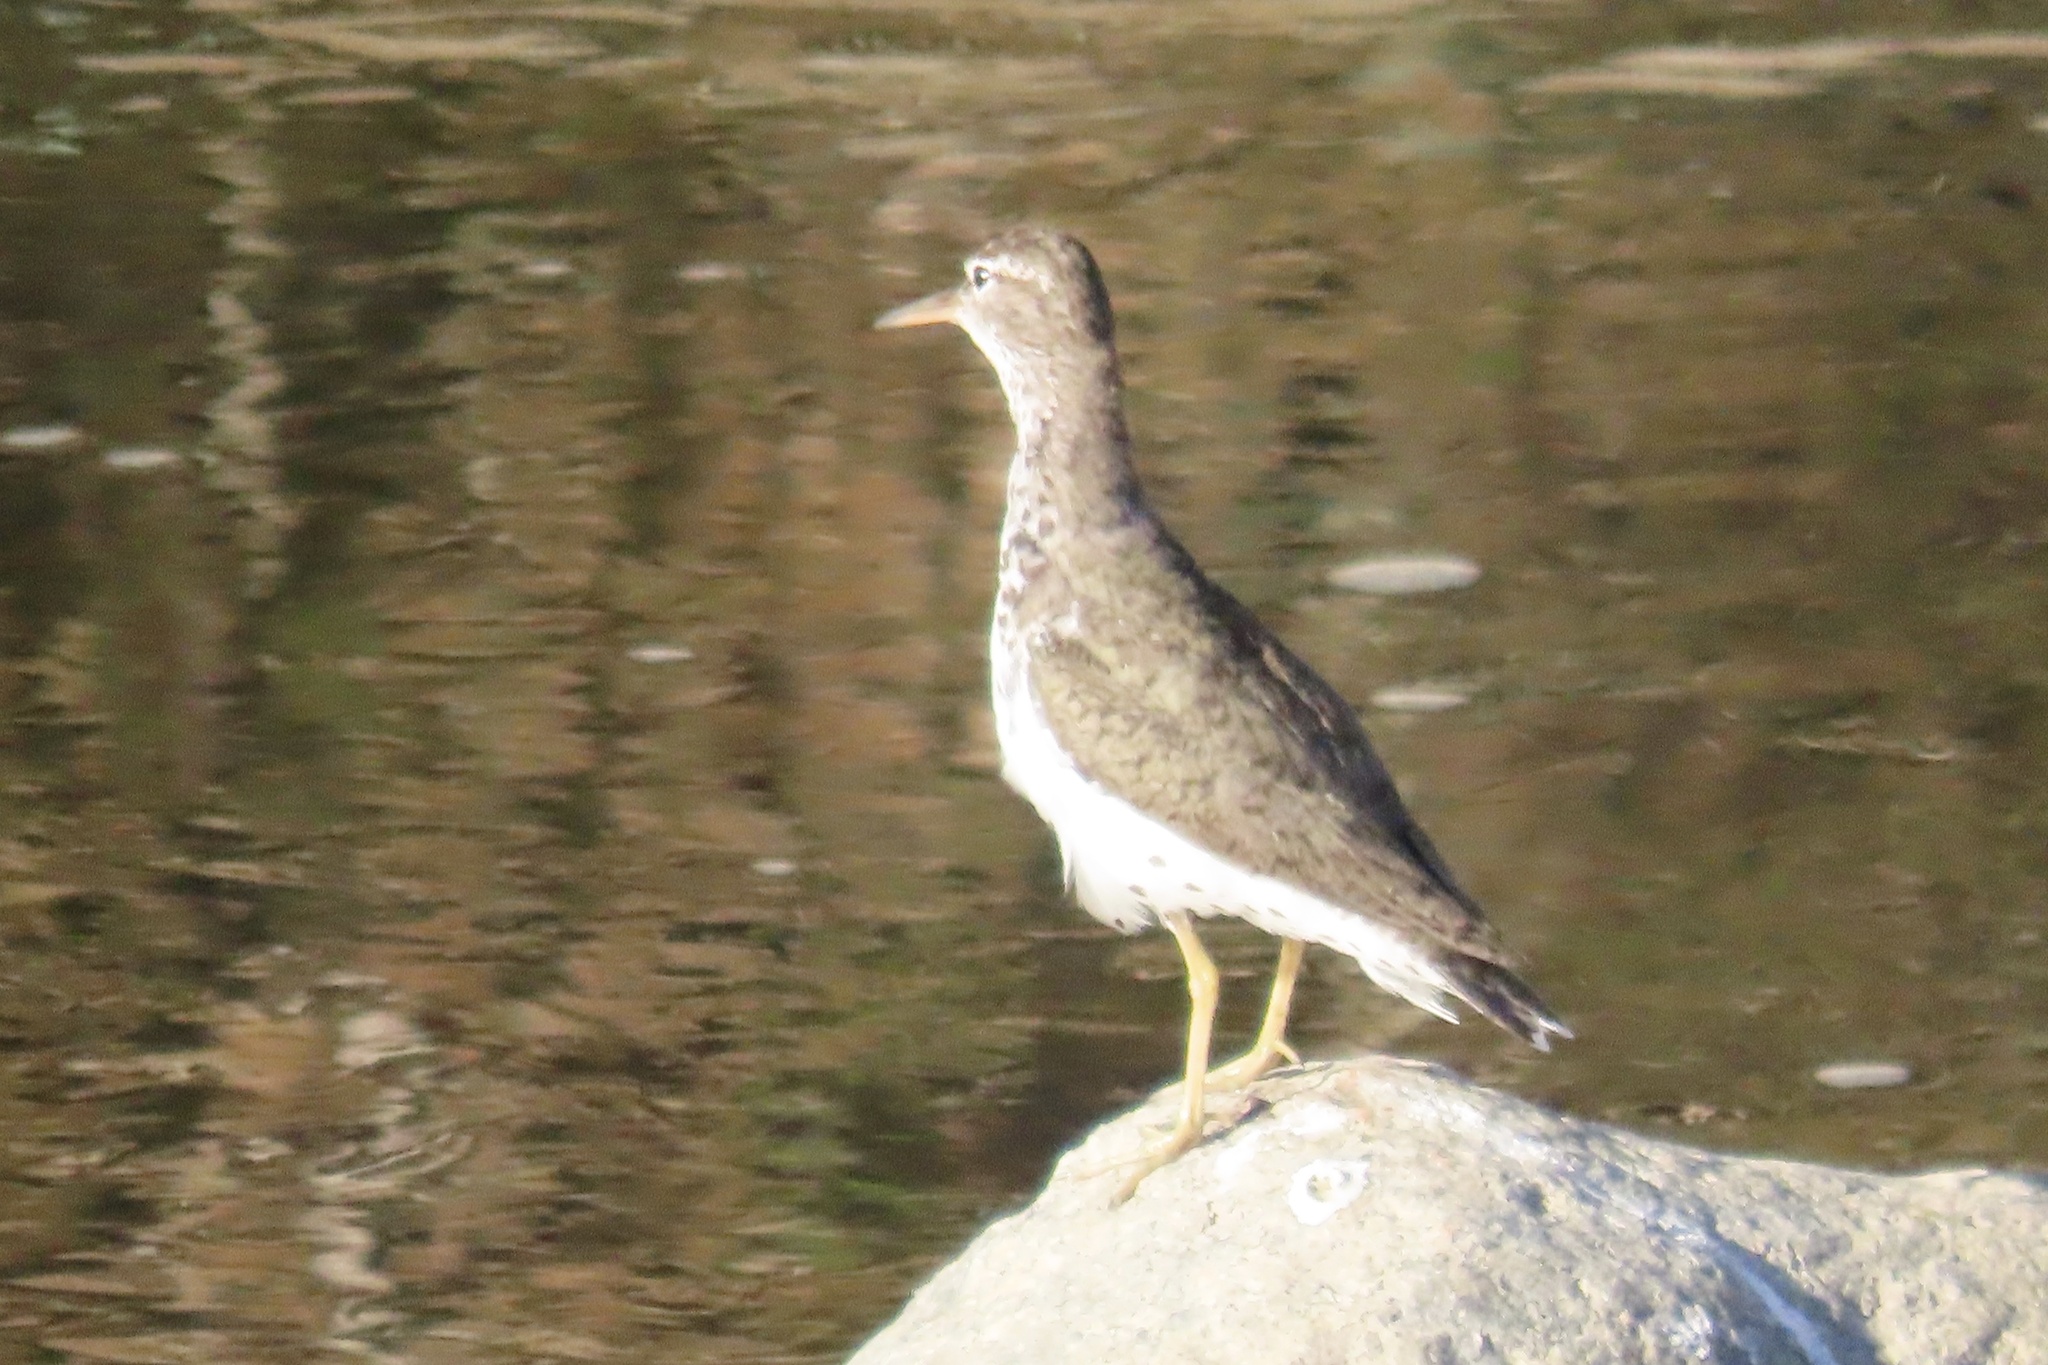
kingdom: Animalia
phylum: Chordata
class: Aves
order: Charadriiformes
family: Scolopacidae
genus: Actitis
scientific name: Actitis macularius
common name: Spotted sandpiper
